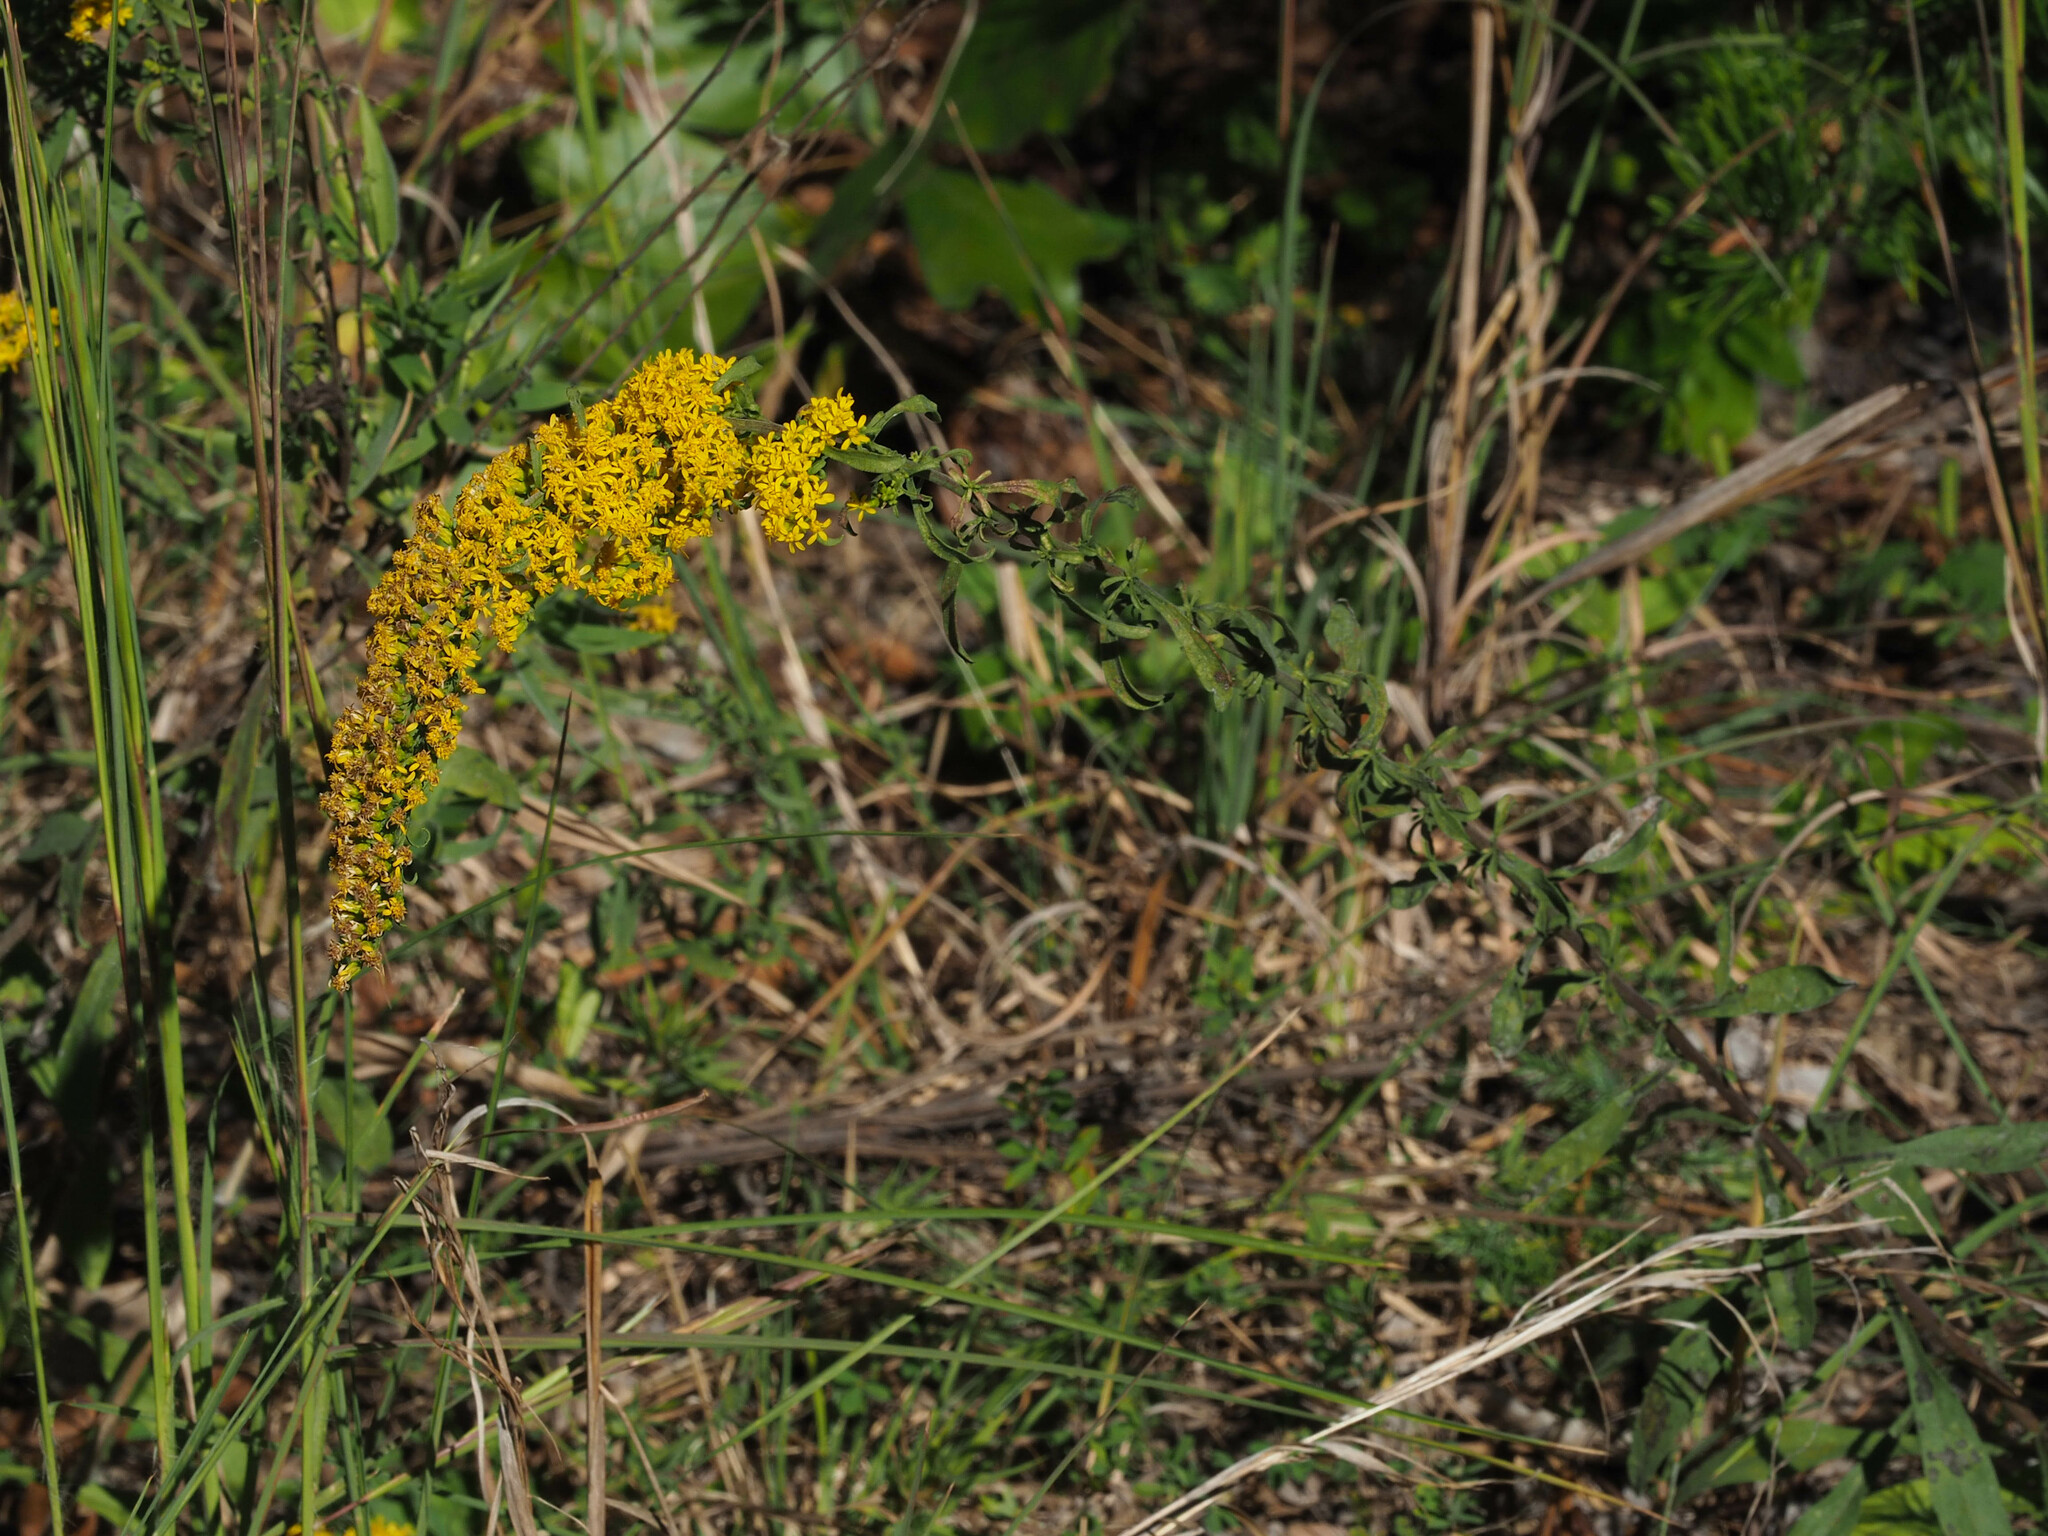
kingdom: Plantae
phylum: Tracheophyta
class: Magnoliopsida
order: Asterales
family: Asteraceae
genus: Solidago
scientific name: Solidago nemoralis
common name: Grey goldenrod
